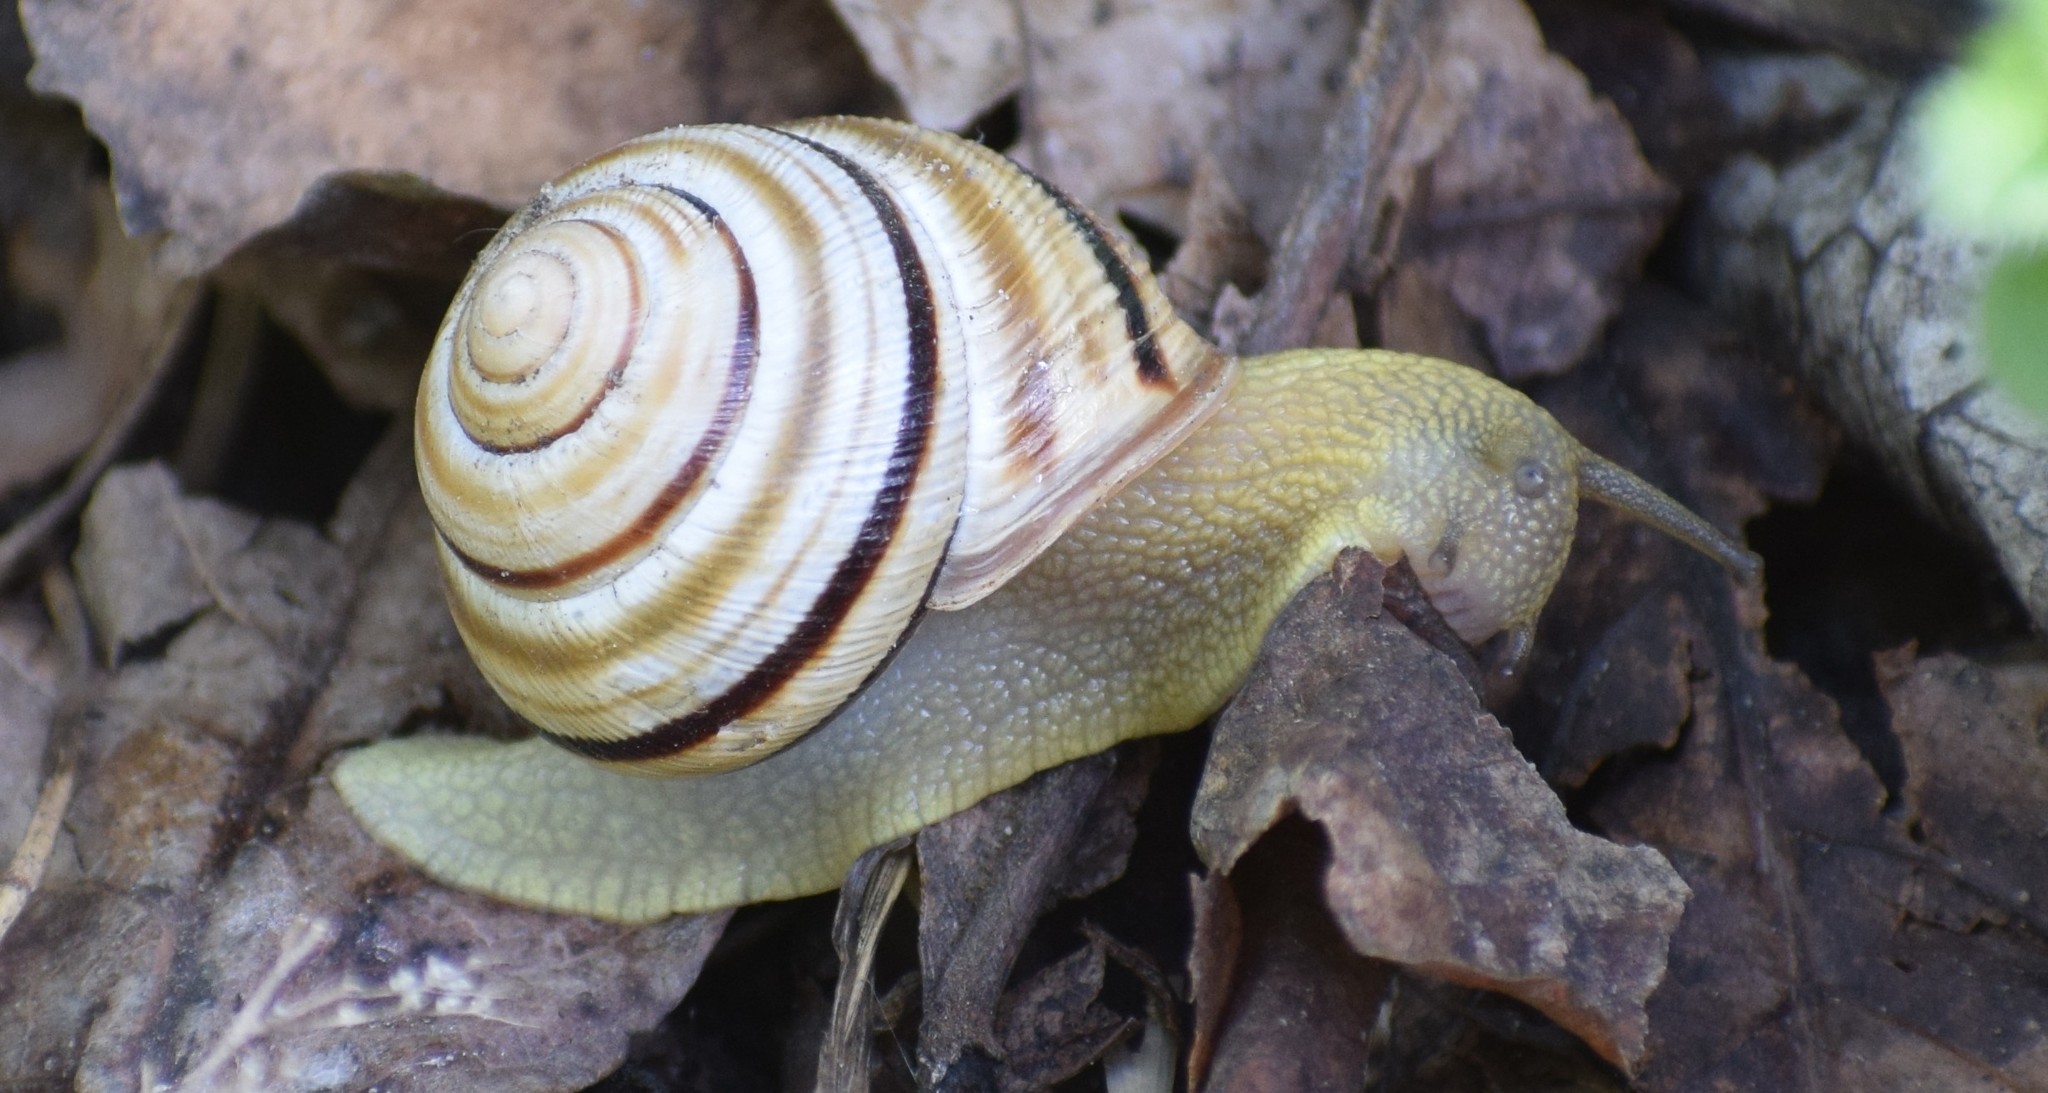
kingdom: Animalia
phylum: Mollusca
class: Gastropoda
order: Stylommatophora
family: Helicidae
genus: Caucasotachea
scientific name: Caucasotachea vindobonensis
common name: European helicid land snail
